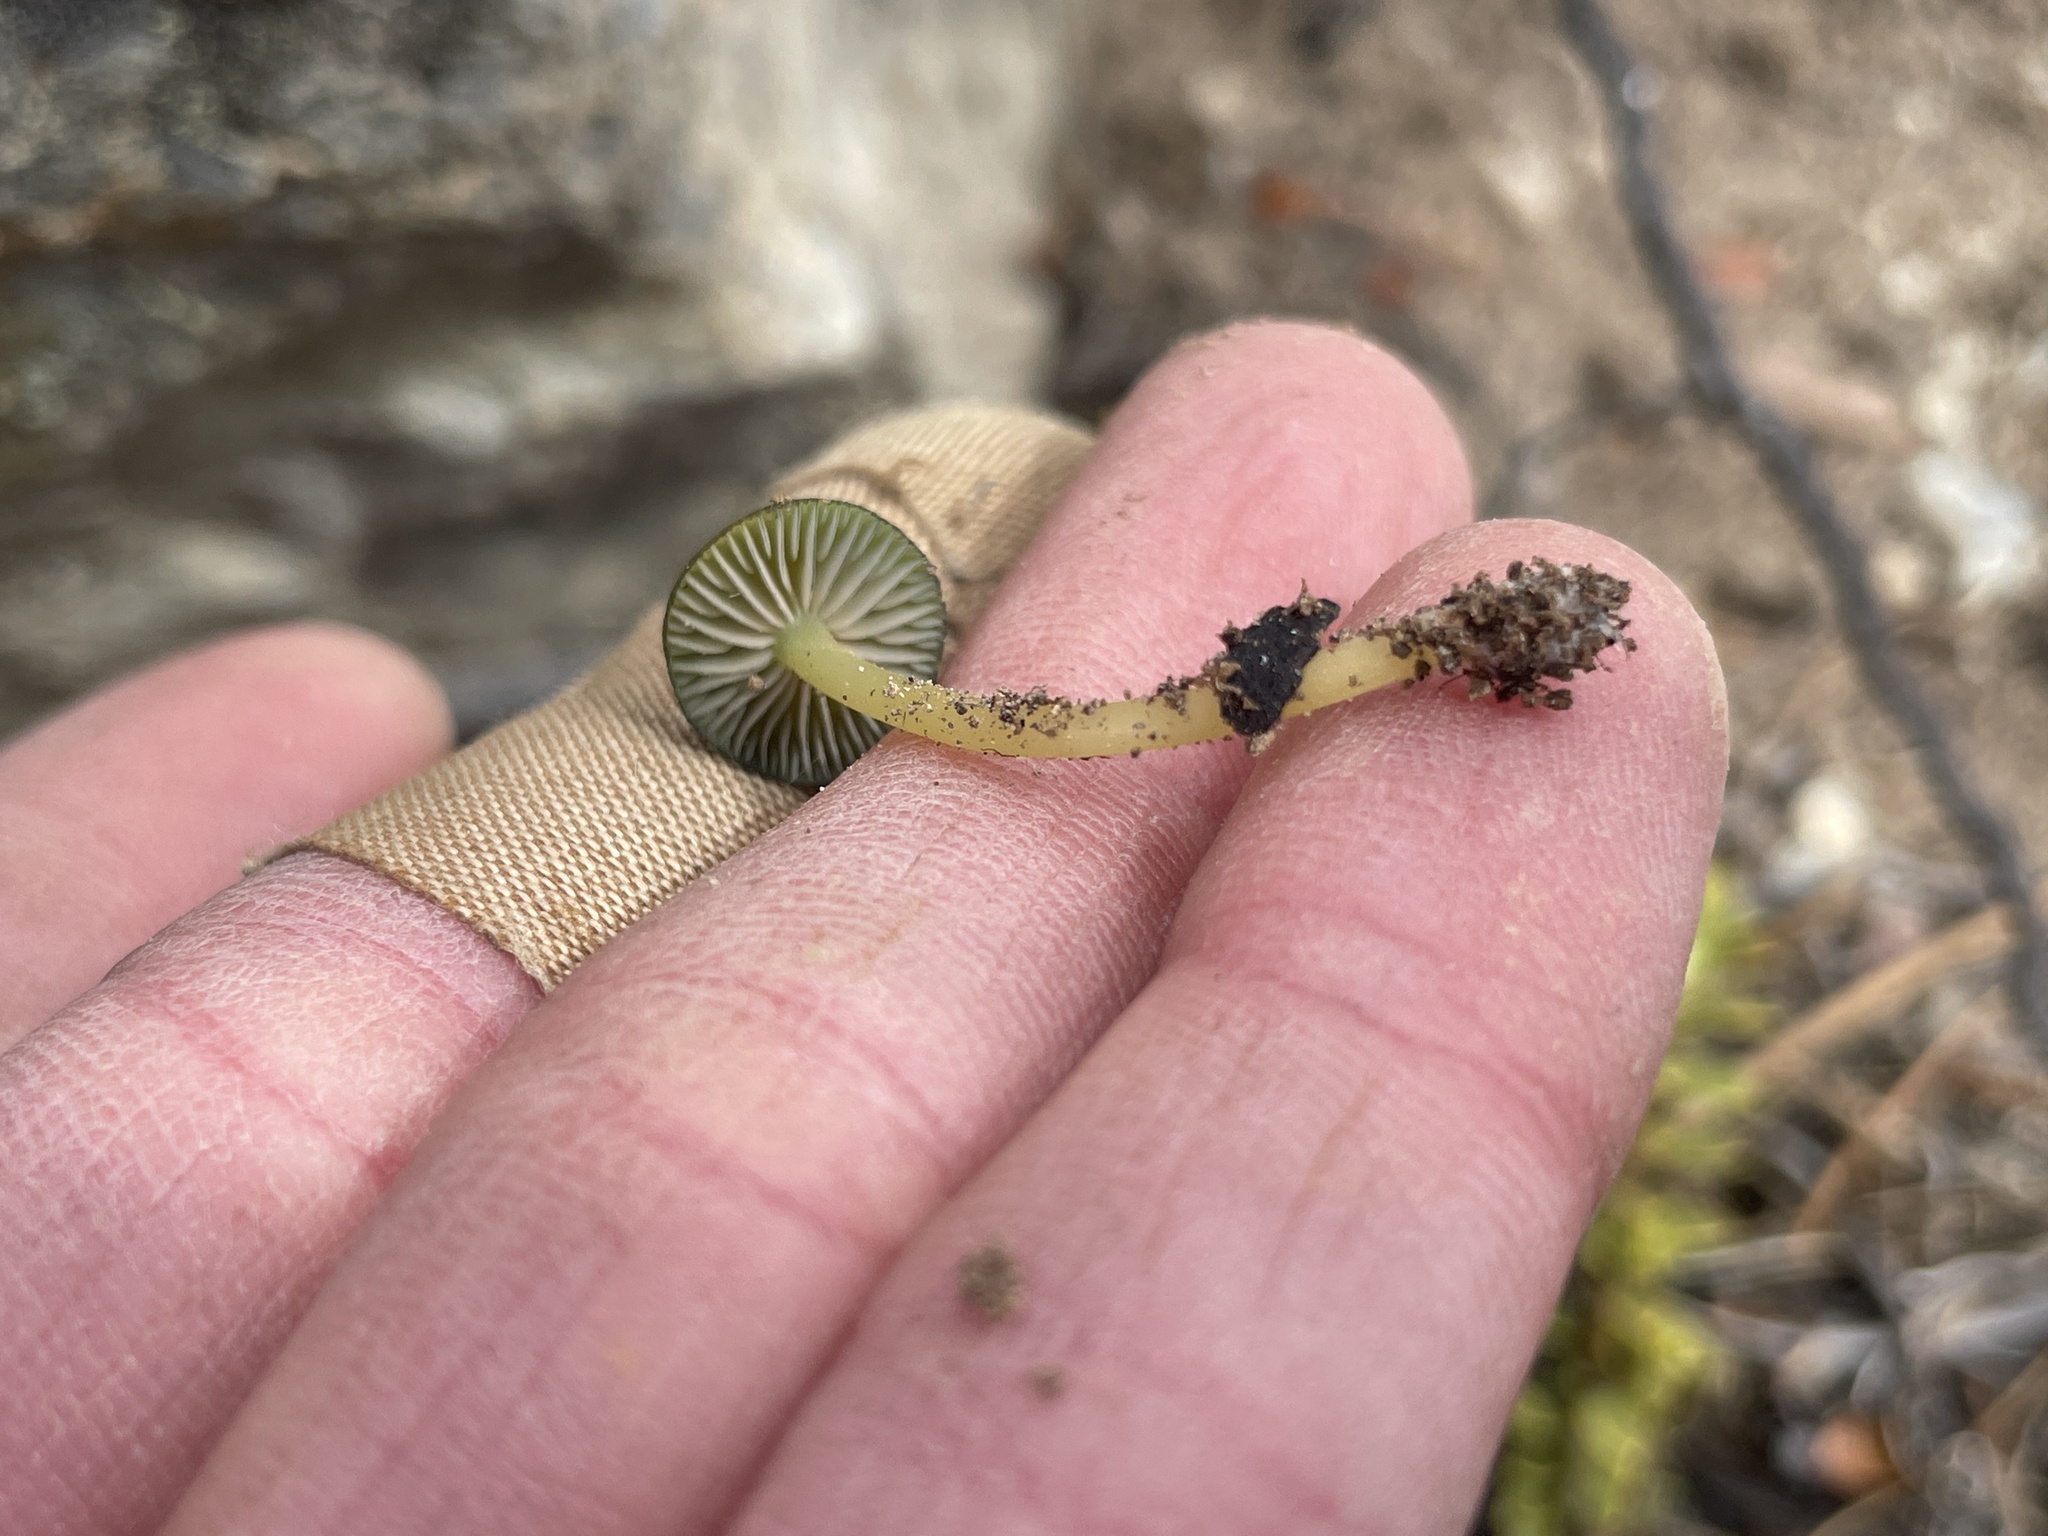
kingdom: Fungi
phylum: Basidiomycota
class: Agaricomycetes
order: Agaricales
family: Entolomataceae
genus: Entoloma
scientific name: Entoloma glaucoroseum
